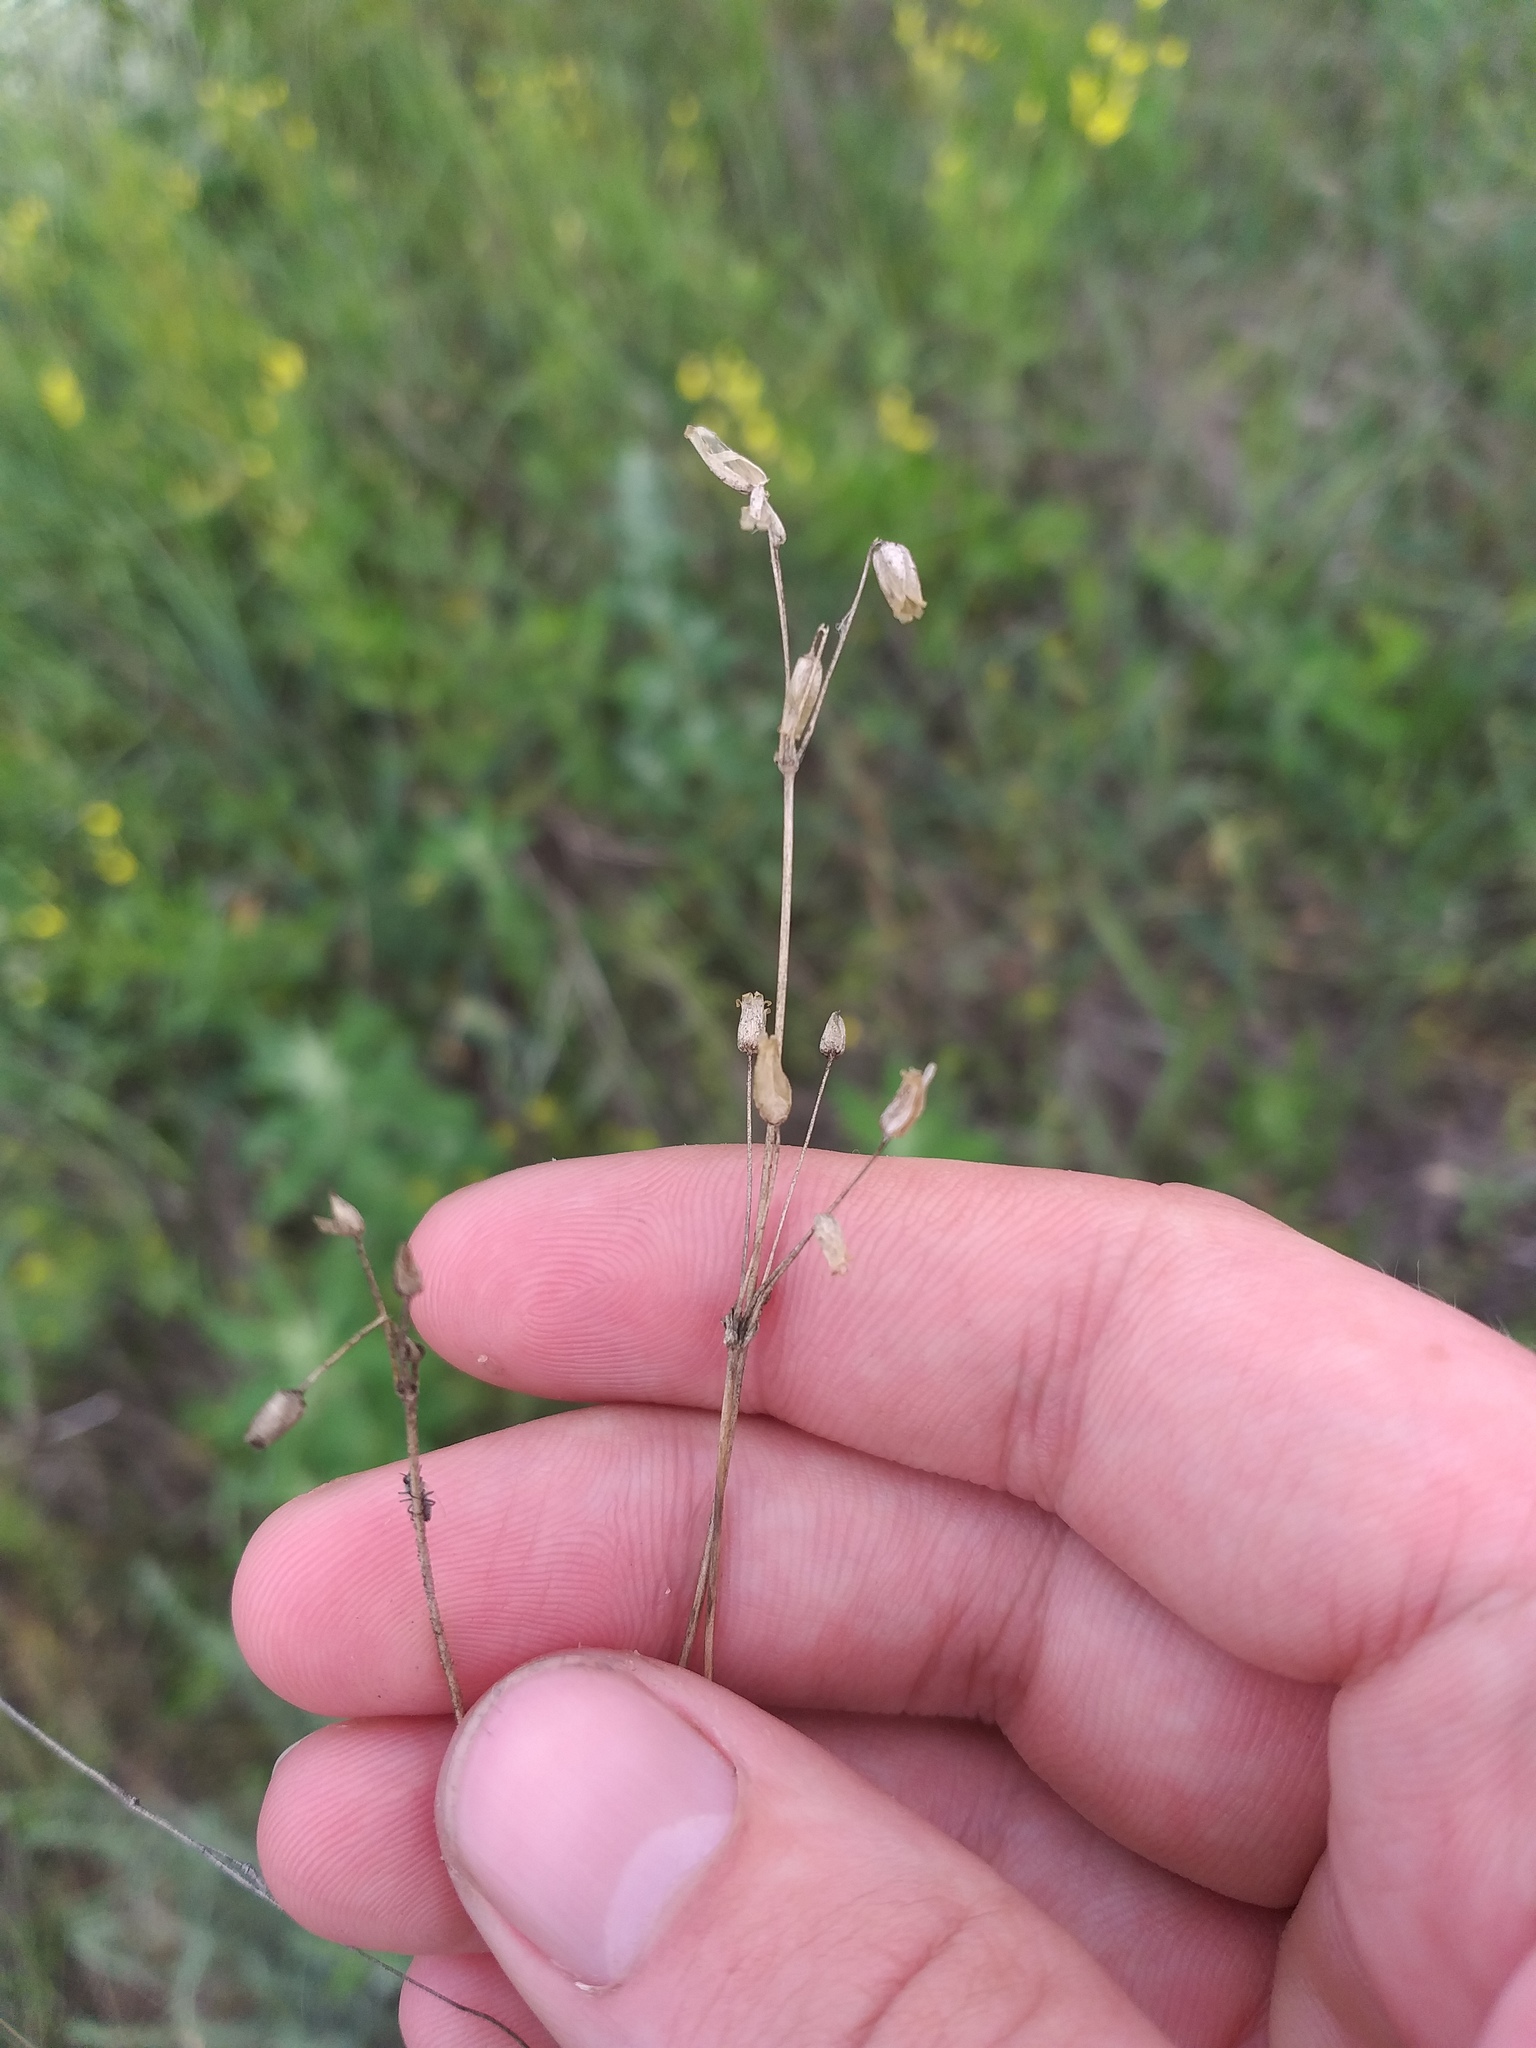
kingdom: Plantae
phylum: Tracheophyta
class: Magnoliopsida
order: Caryophyllales
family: Caryophyllaceae
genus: Holosteum
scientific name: Holosteum umbellatum
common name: Jagged chickweed
